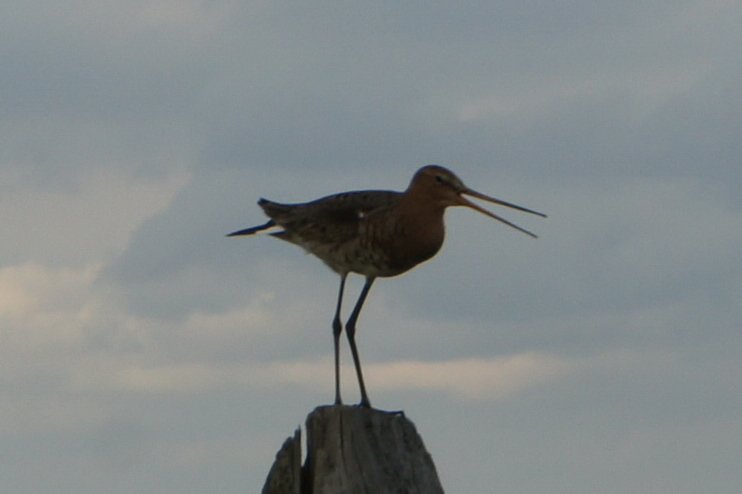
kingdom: Animalia
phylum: Chordata
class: Aves
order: Charadriiformes
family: Scolopacidae
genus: Limosa
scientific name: Limosa limosa
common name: Black-tailed godwit
